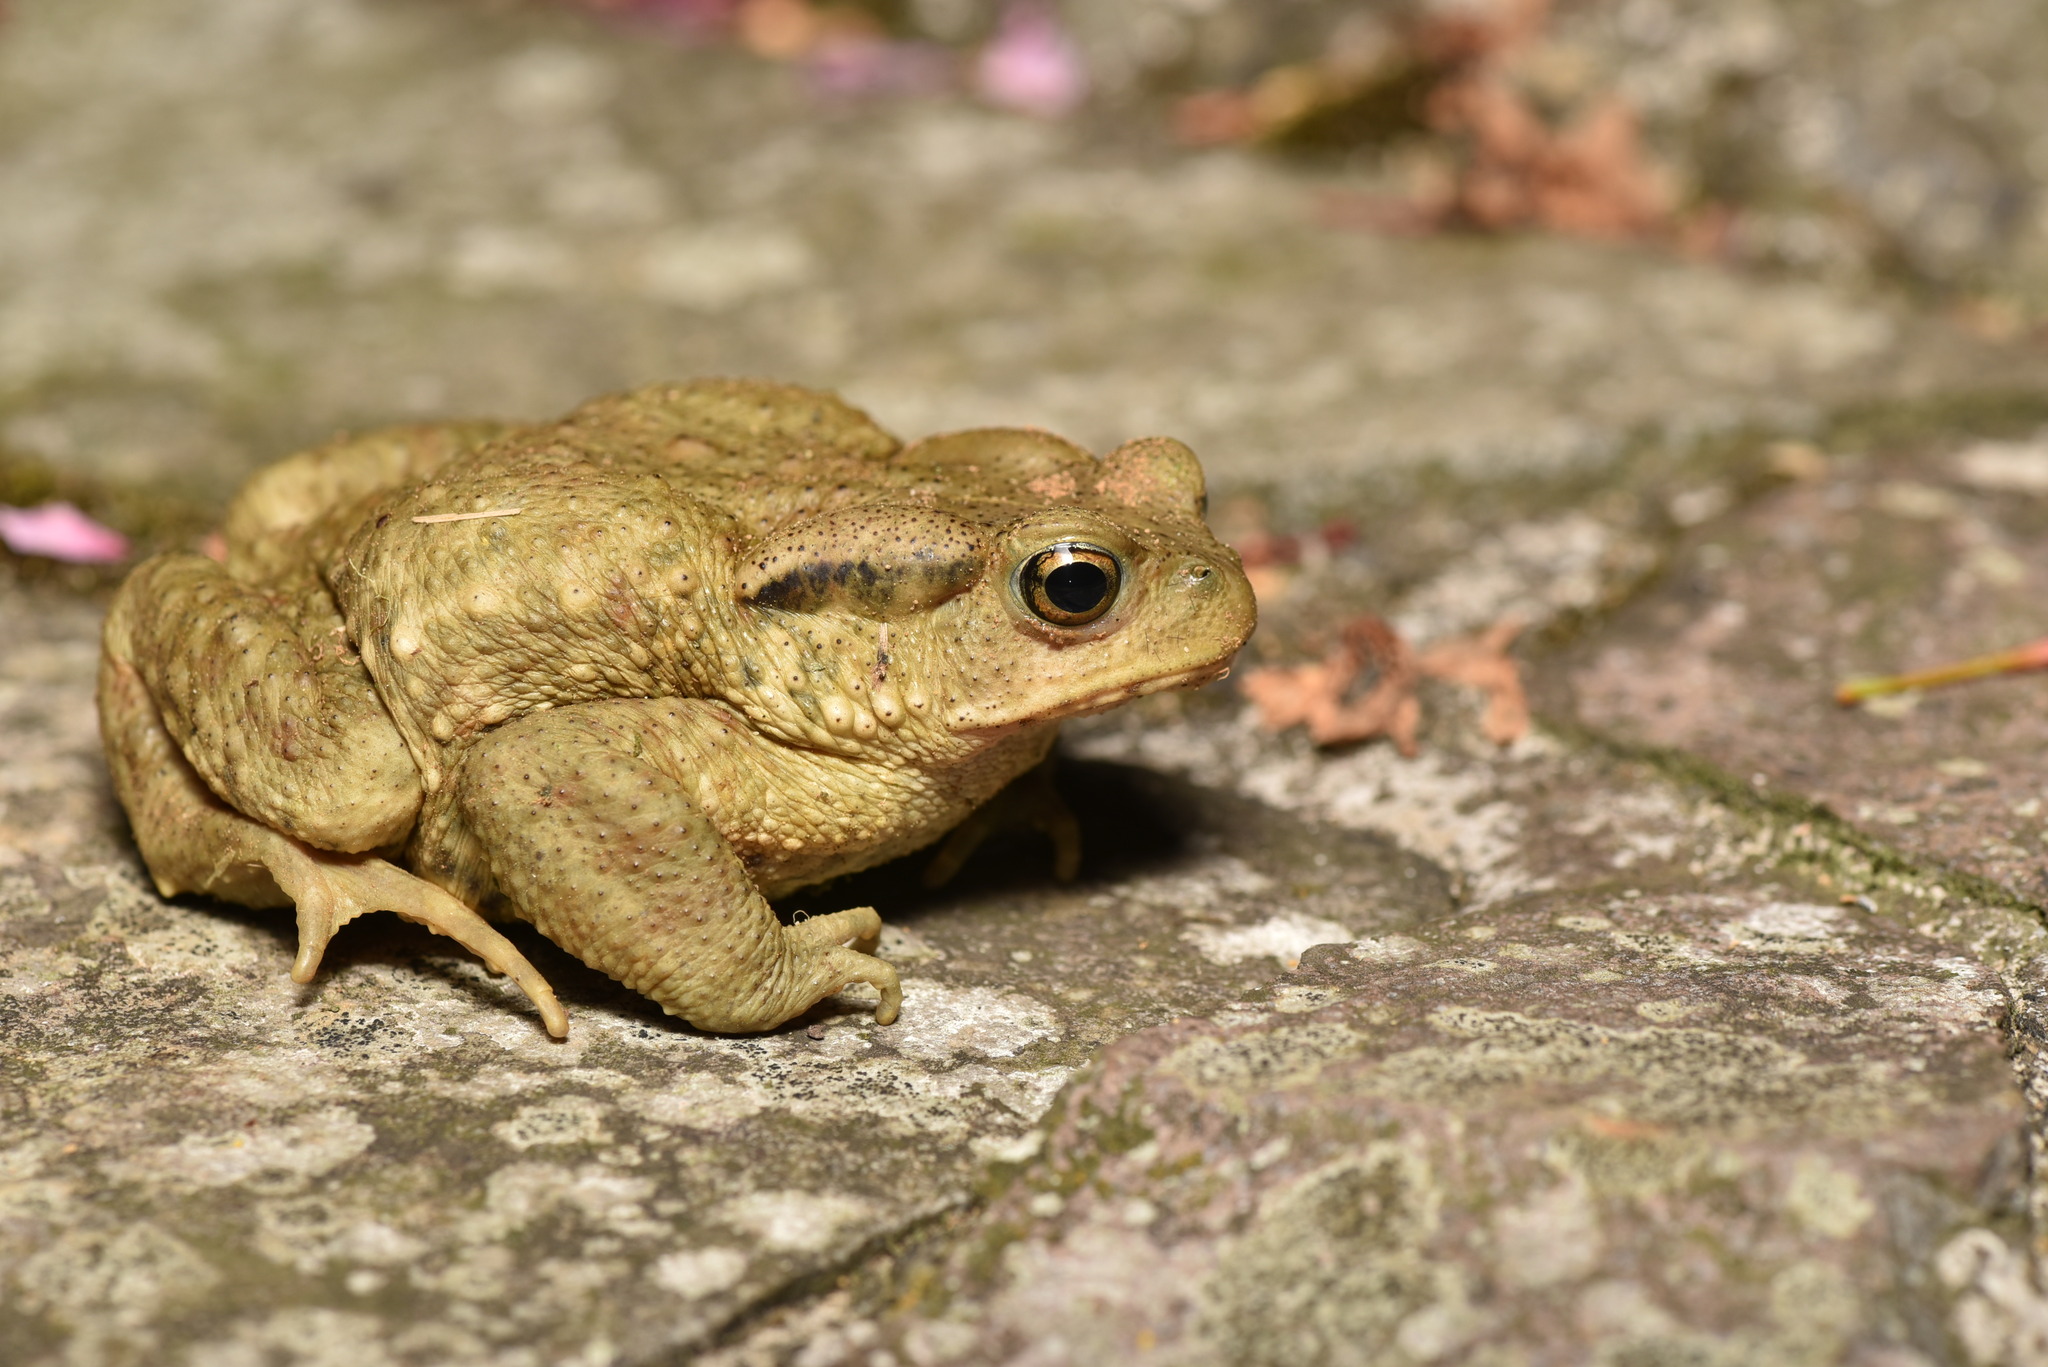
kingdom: Animalia
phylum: Chordata
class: Amphibia
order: Anura
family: Bufonidae
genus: Bufo
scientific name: Bufo bankorensis
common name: Bankor toad
